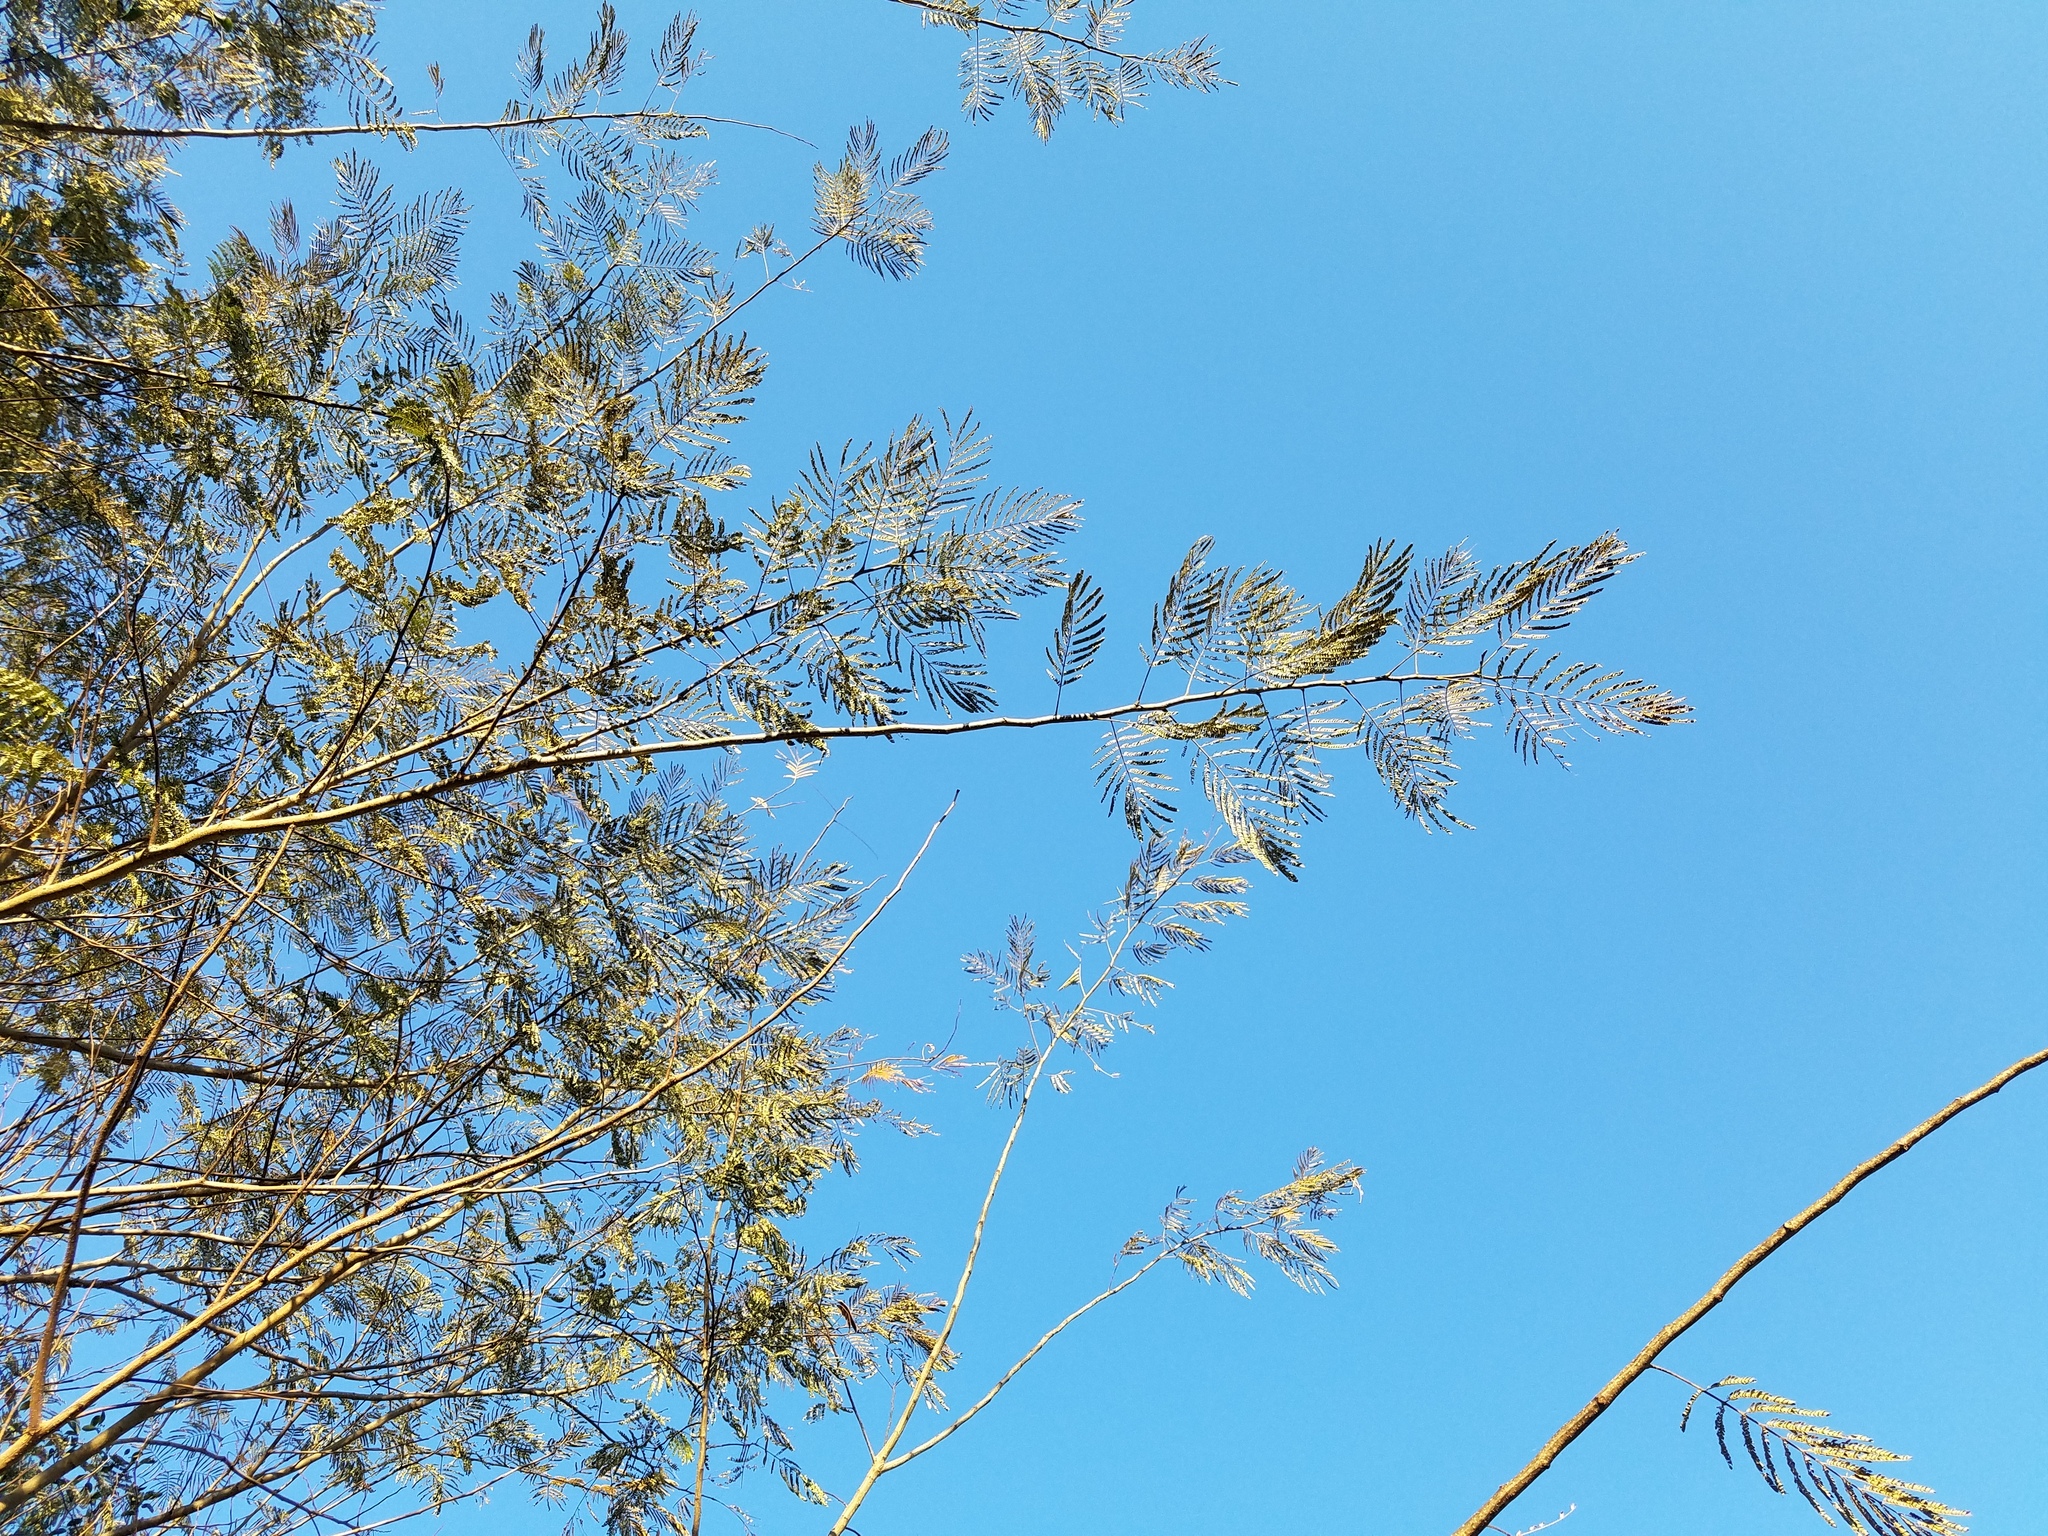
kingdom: Plantae
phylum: Tracheophyta
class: Magnoliopsida
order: Fabales
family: Fabaceae
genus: Albizia
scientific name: Albizia julibrissin
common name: Silktree
